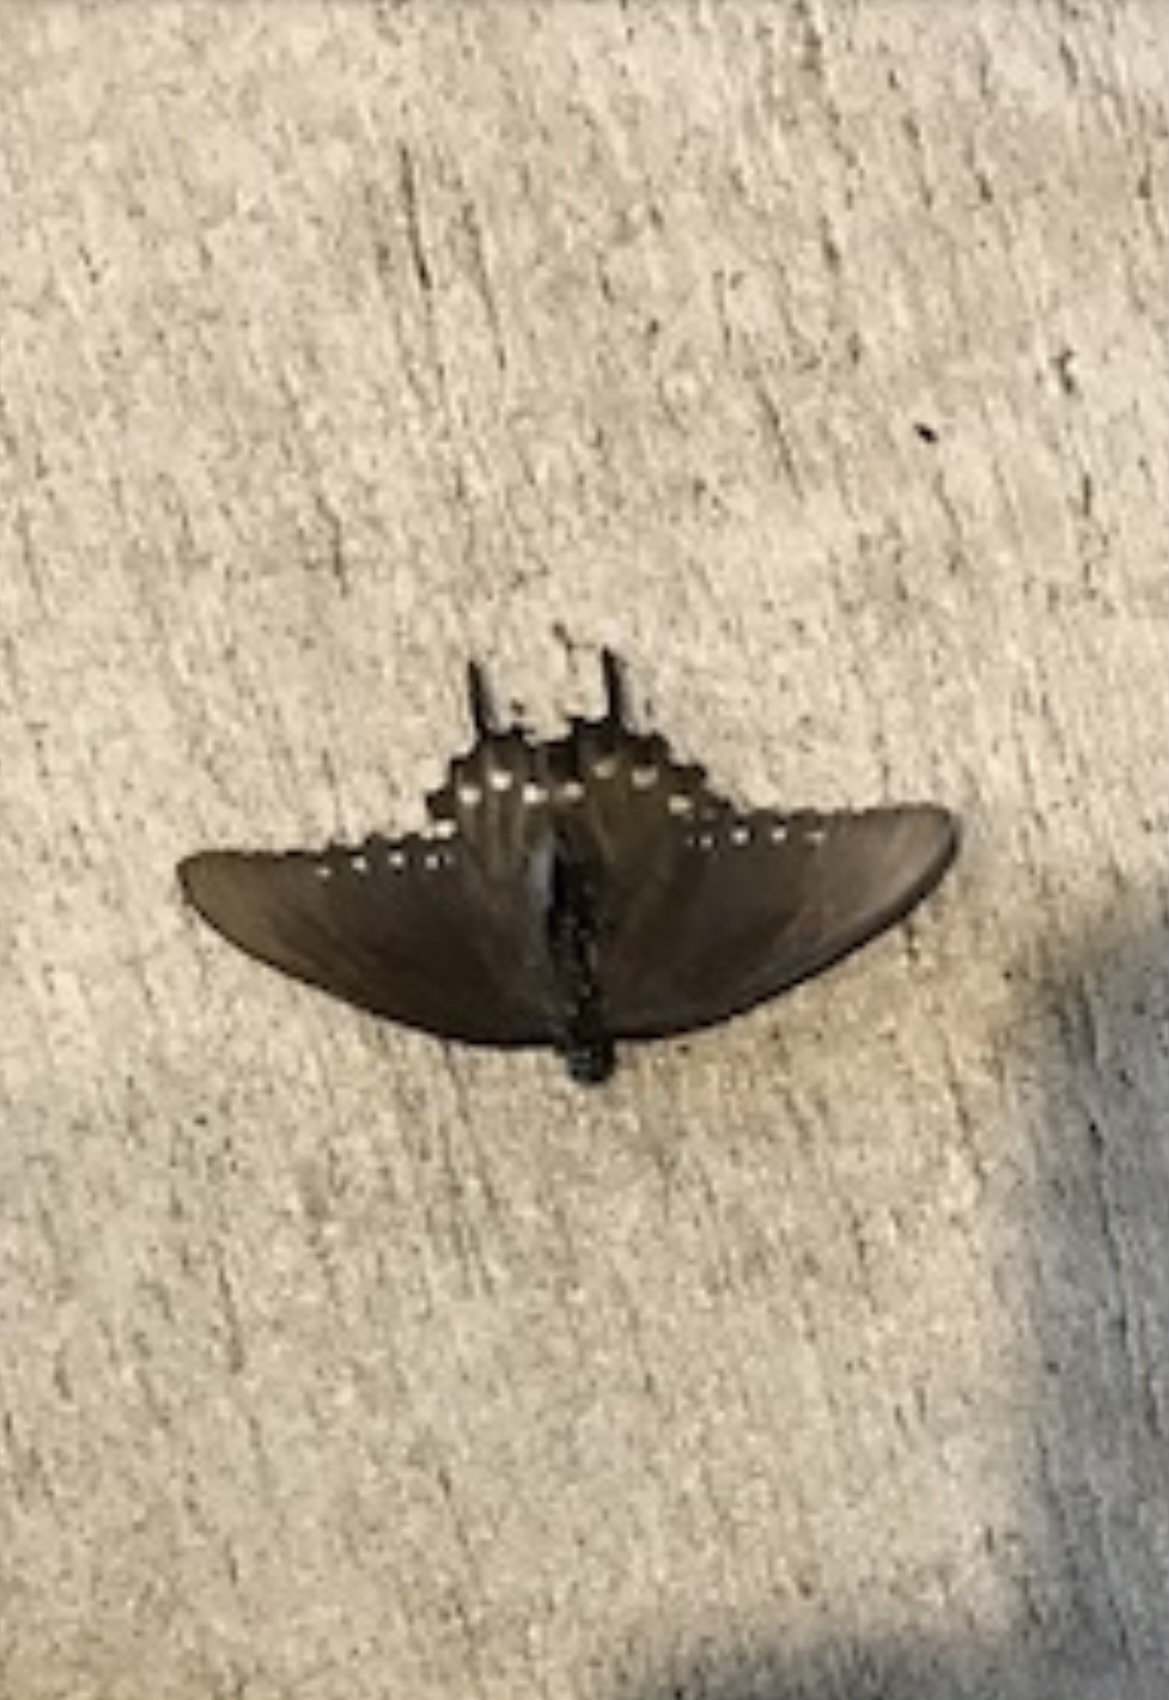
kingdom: Animalia
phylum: Arthropoda
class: Insecta
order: Lepidoptera
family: Papilionidae
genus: Battus
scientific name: Battus philenor
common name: Pipevine swallowtail
